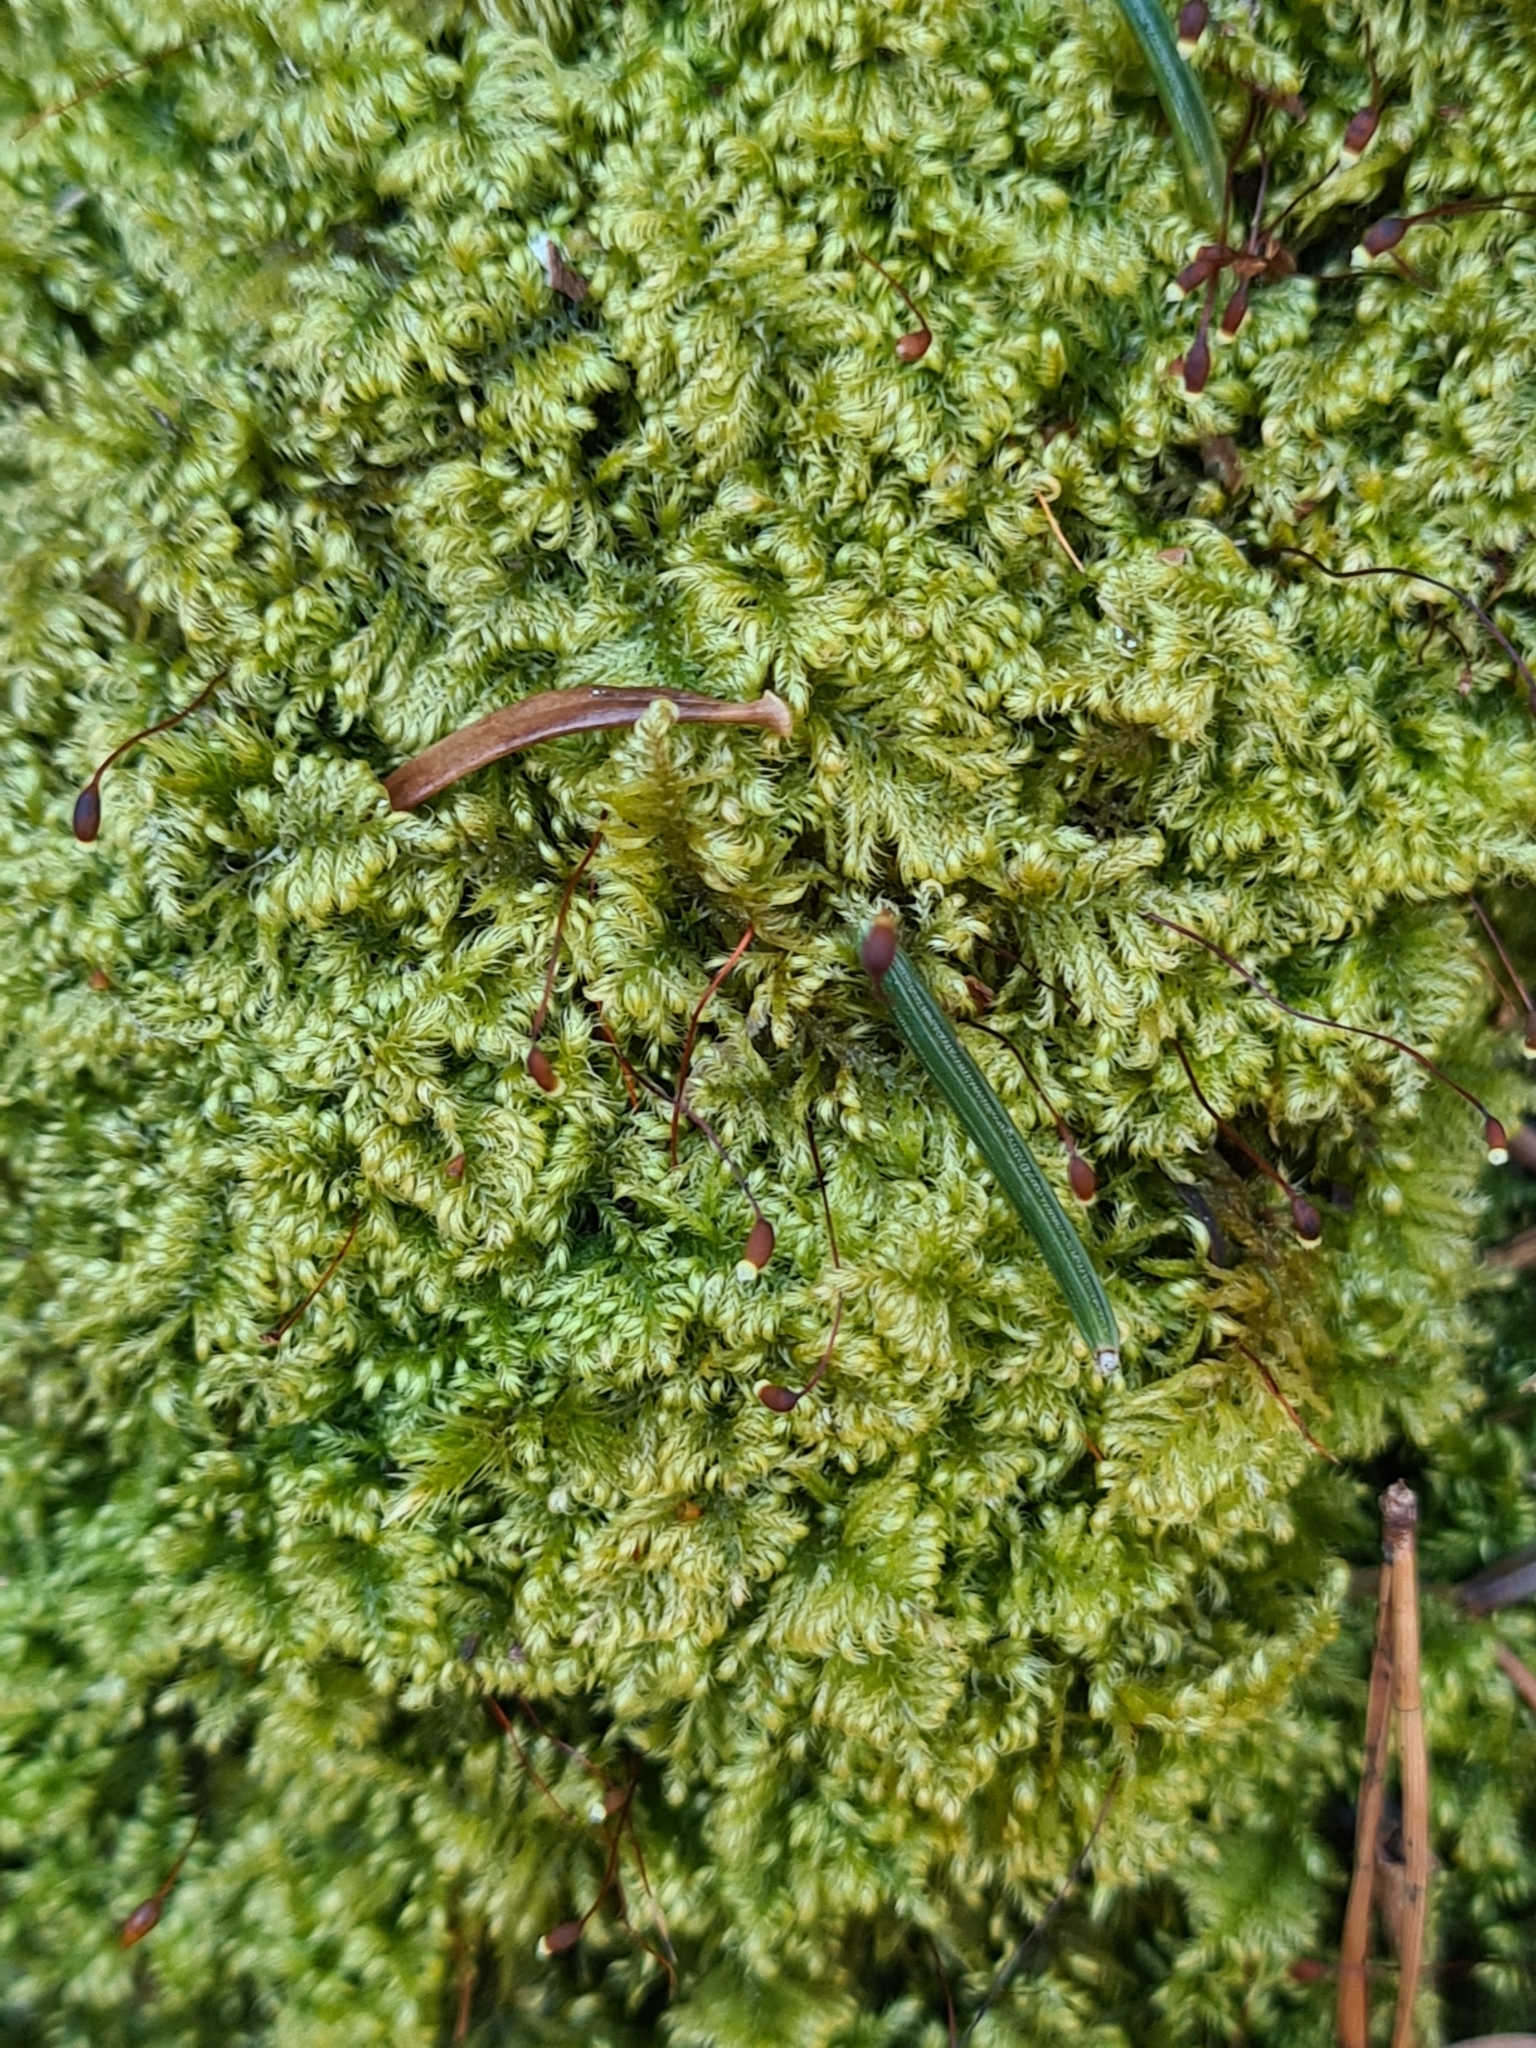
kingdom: Plantae
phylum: Bryophyta
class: Bryopsida
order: Hypnales
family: Myuriaceae
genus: Ctenidium
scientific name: Ctenidium molluscum
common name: Chalk comb-moss
